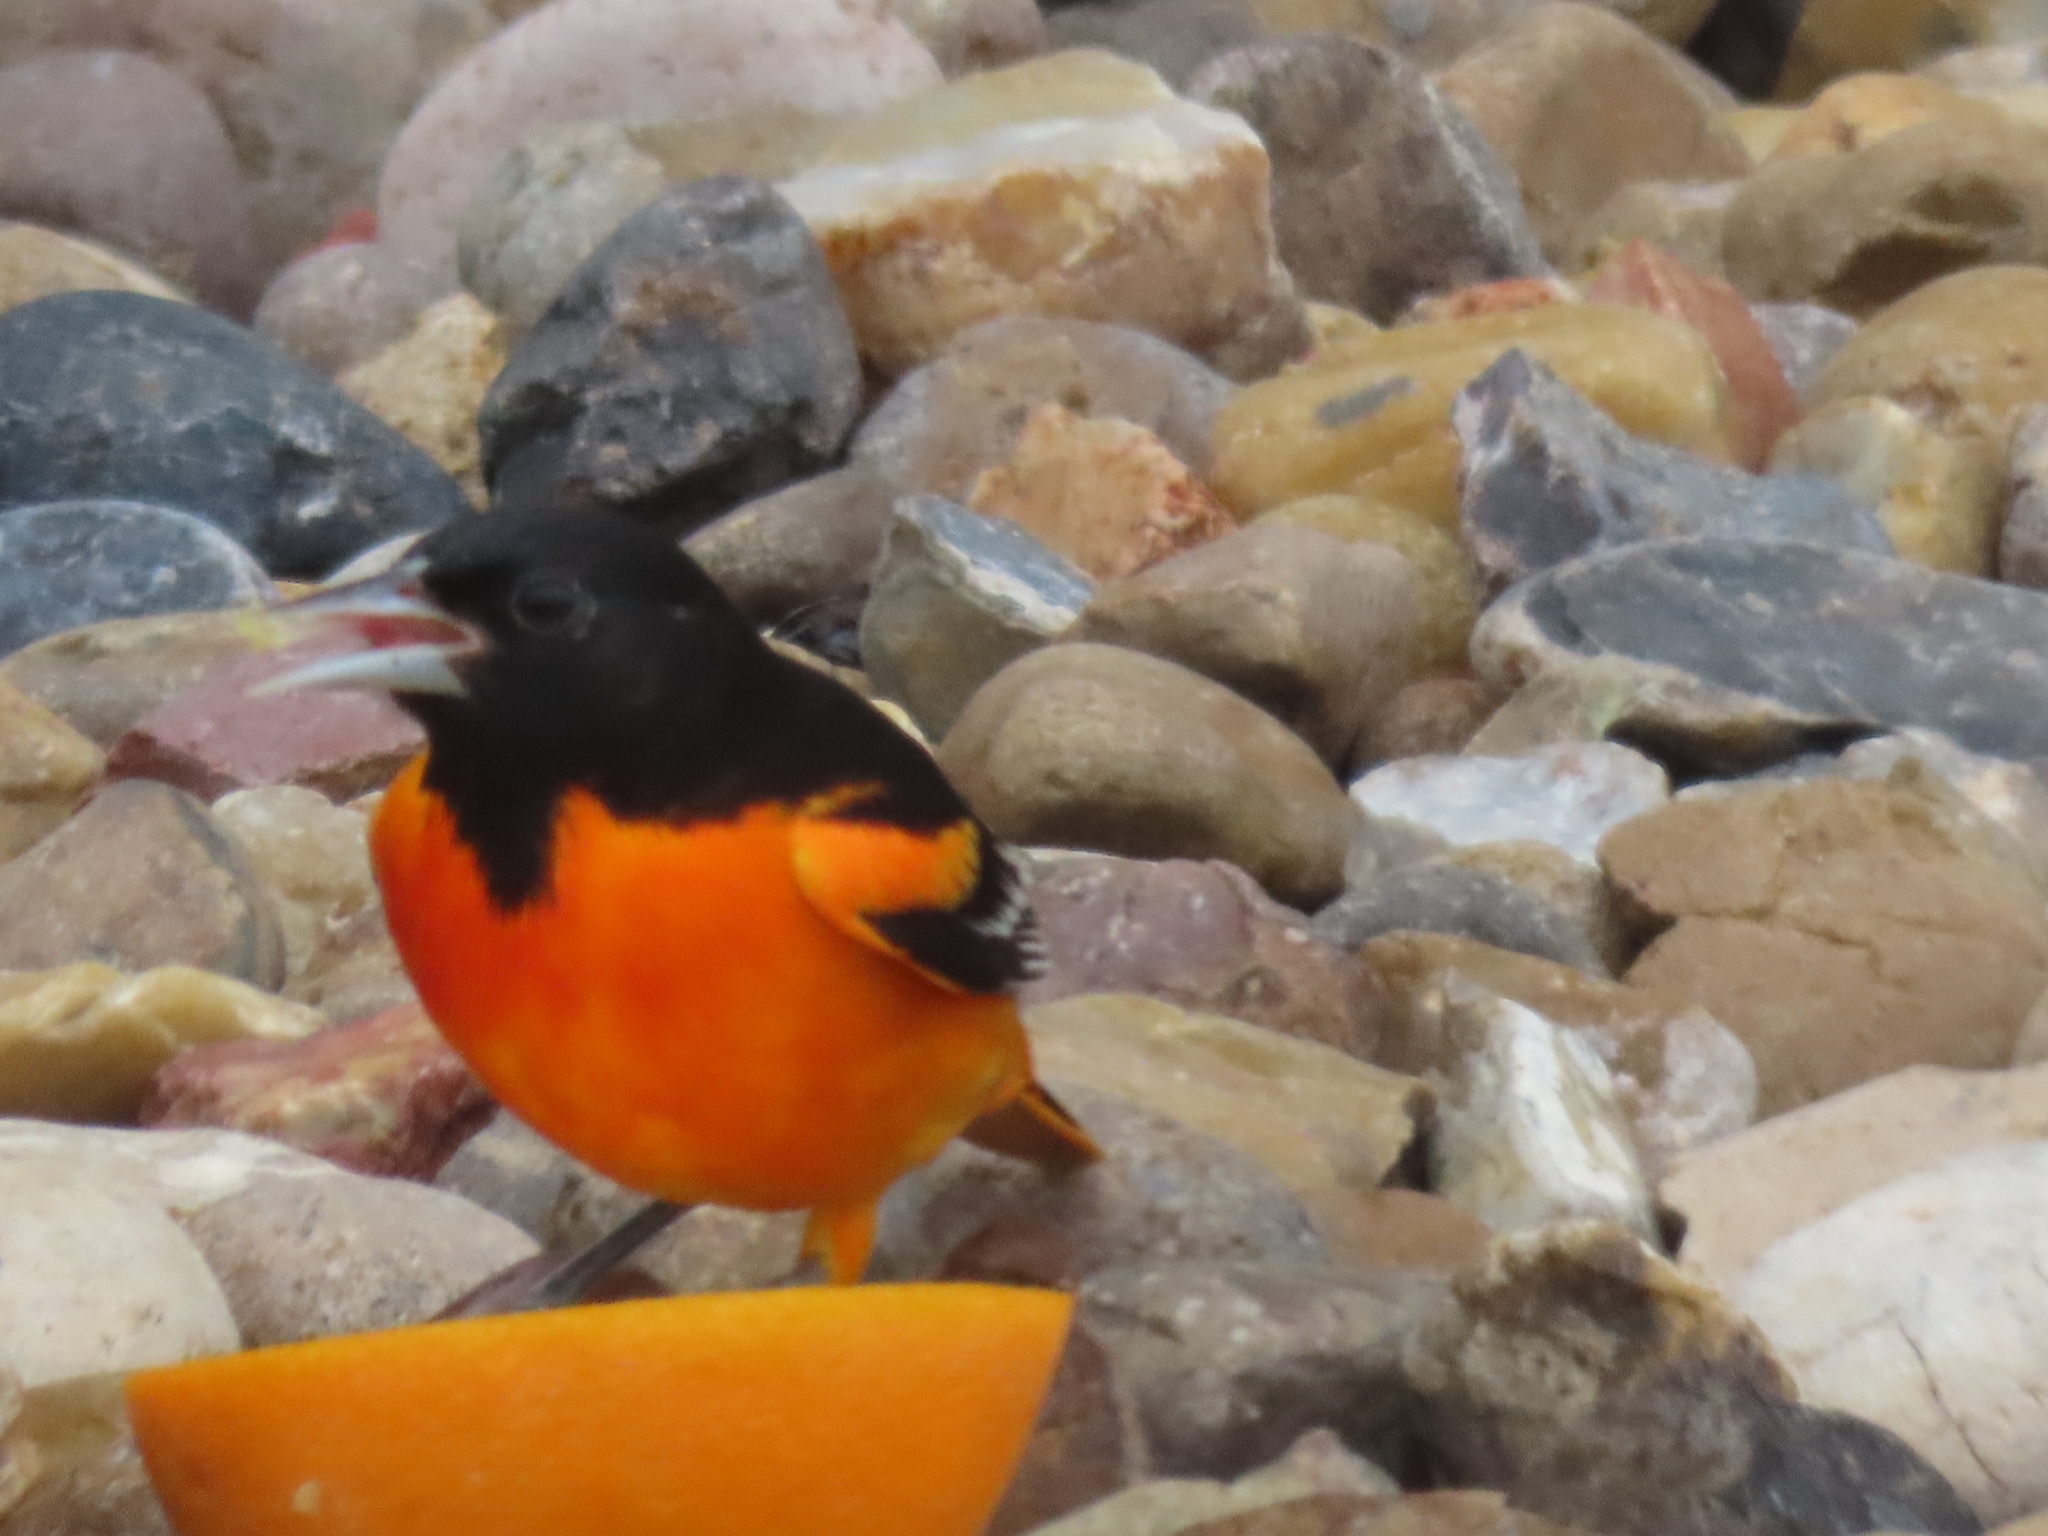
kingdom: Animalia
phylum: Chordata
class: Aves
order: Passeriformes
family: Icteridae
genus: Icterus
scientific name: Icterus galbula
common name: Baltimore oriole
